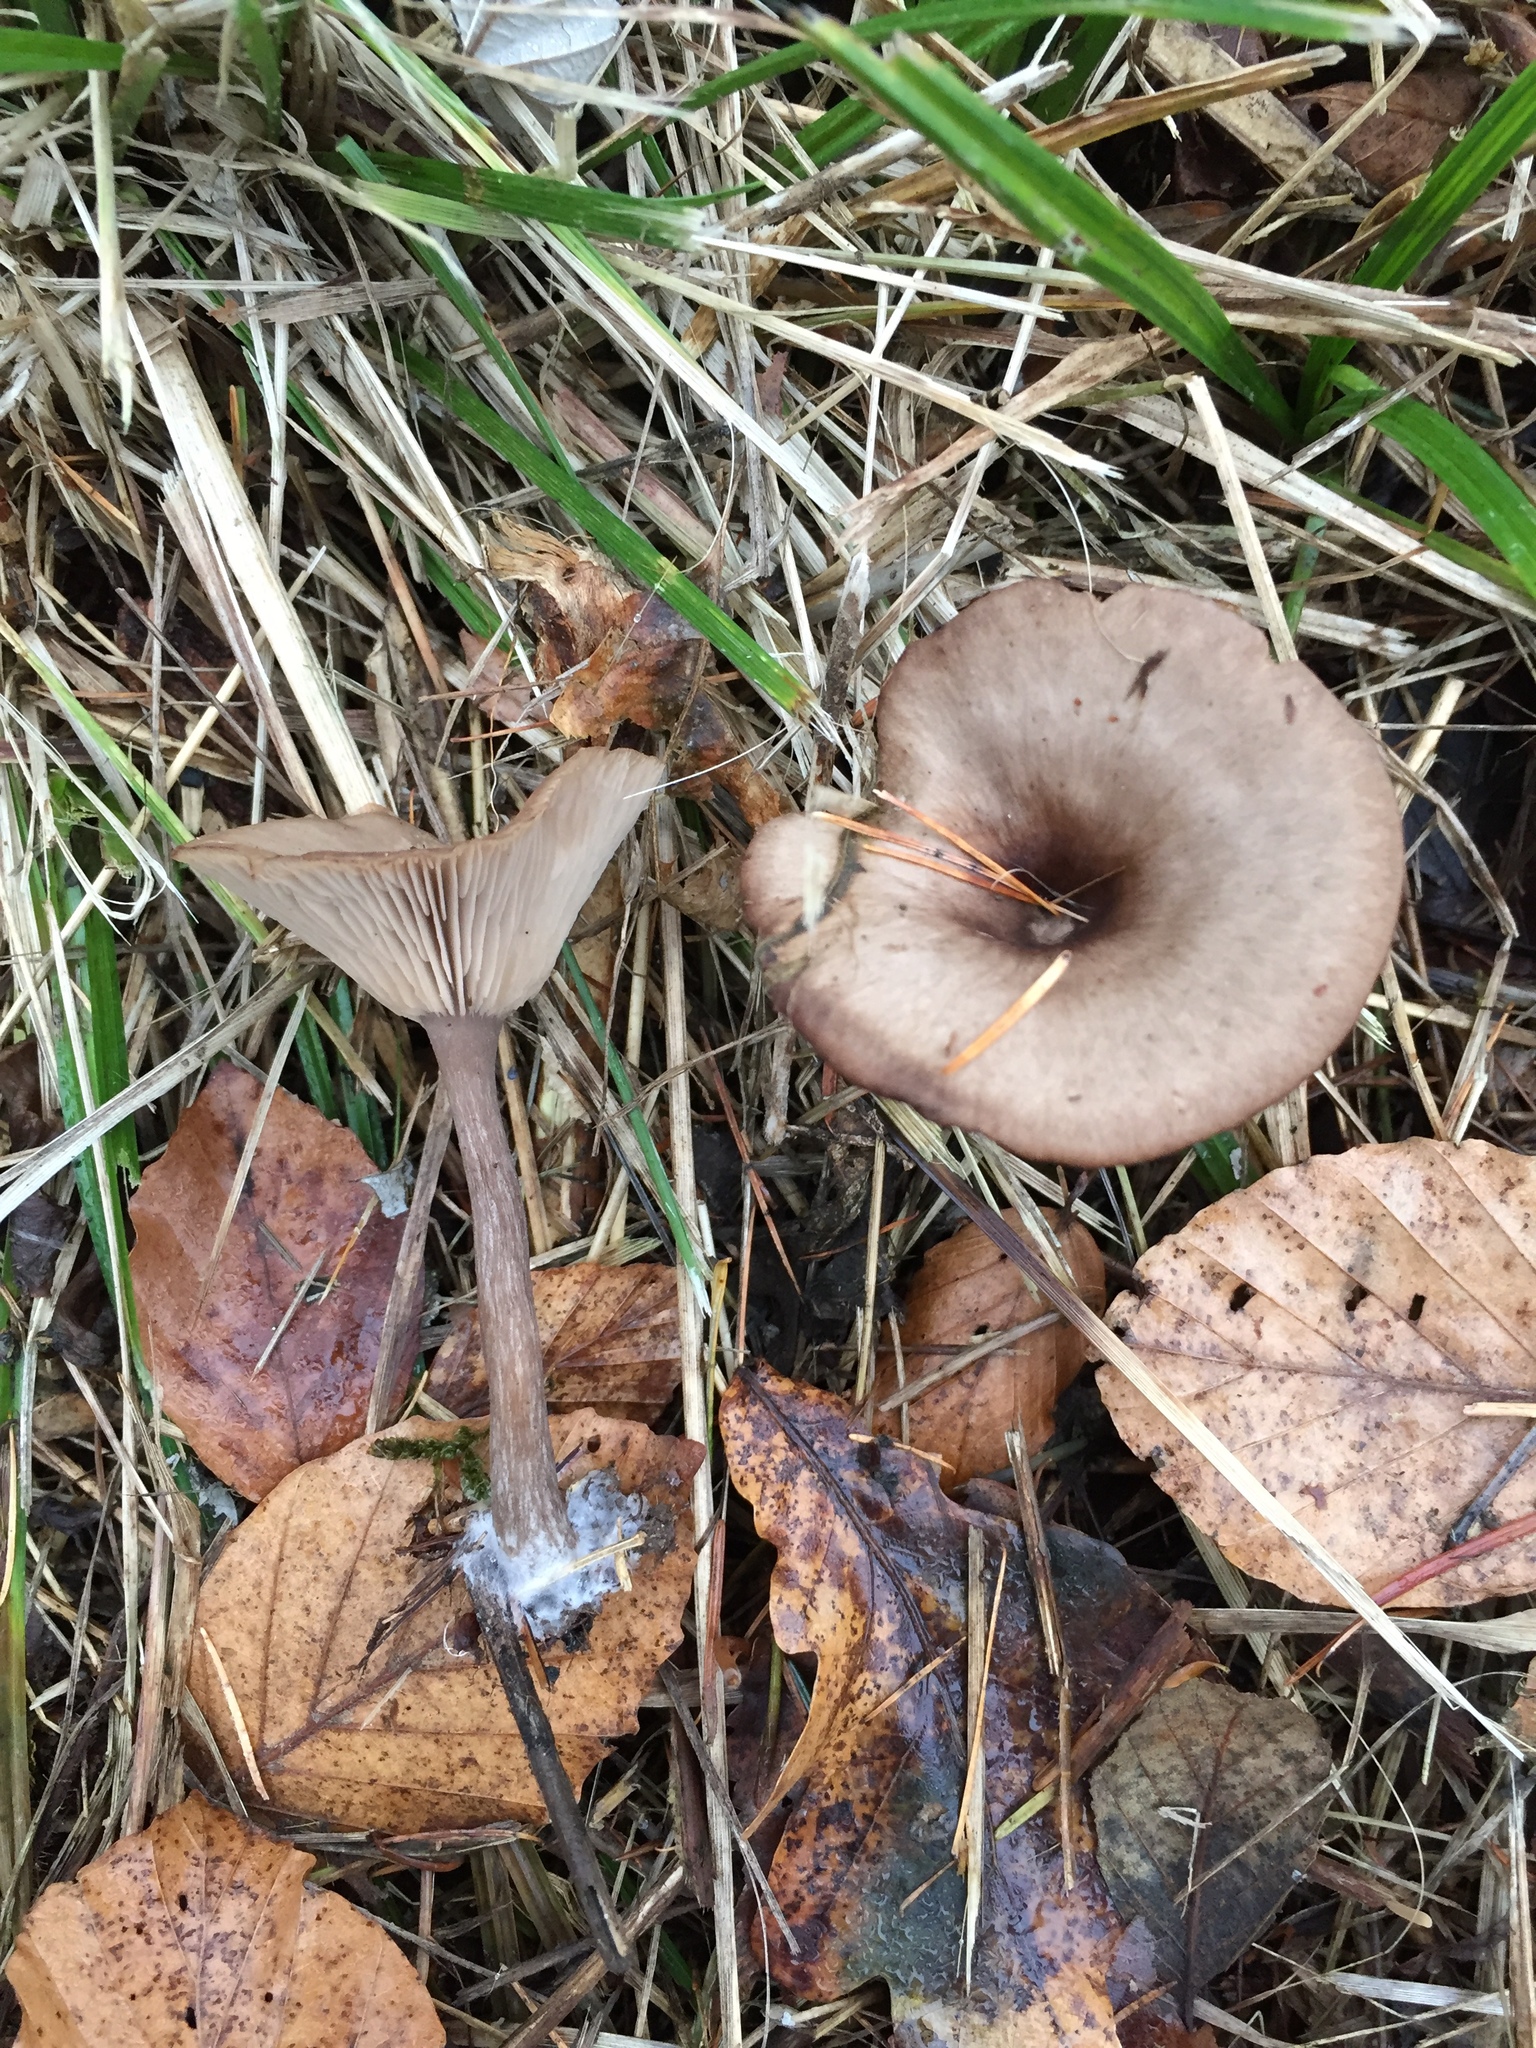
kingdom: Fungi
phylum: Basidiomycota
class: Agaricomycetes
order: Agaricales
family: Pseudoclitocybaceae
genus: Pseudoclitocybe
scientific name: Pseudoclitocybe cyathiformis
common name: Goblet
